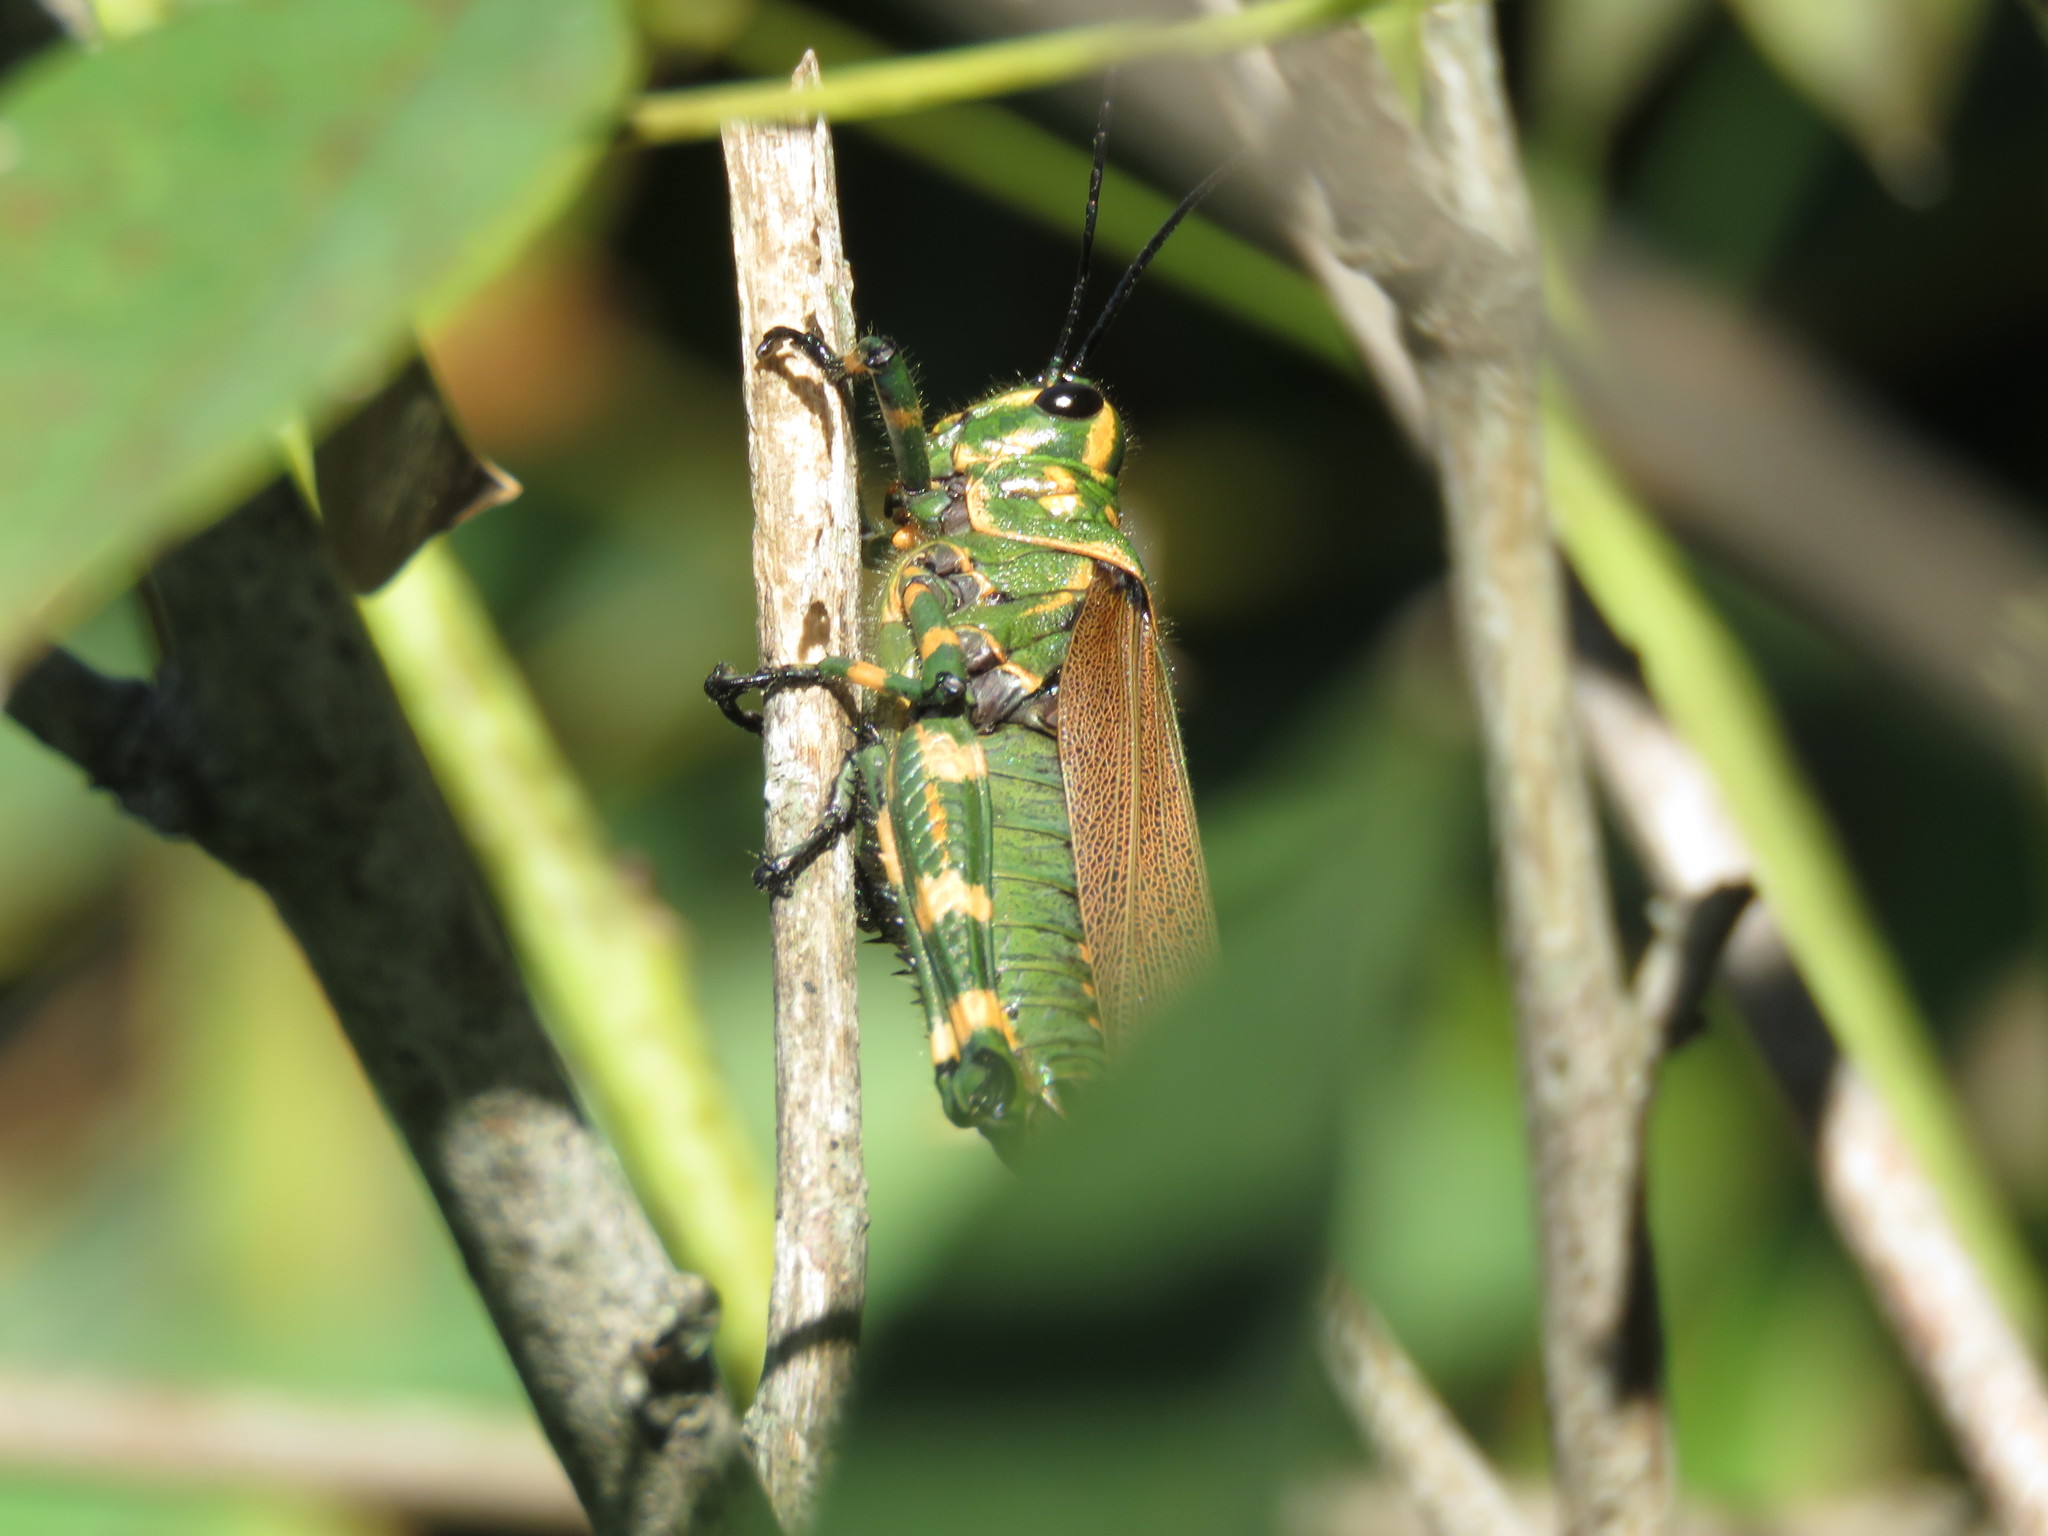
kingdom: Animalia
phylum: Arthropoda
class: Insecta
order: Orthoptera
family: Romaleidae
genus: Chromacris
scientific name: Chromacris speciosa
